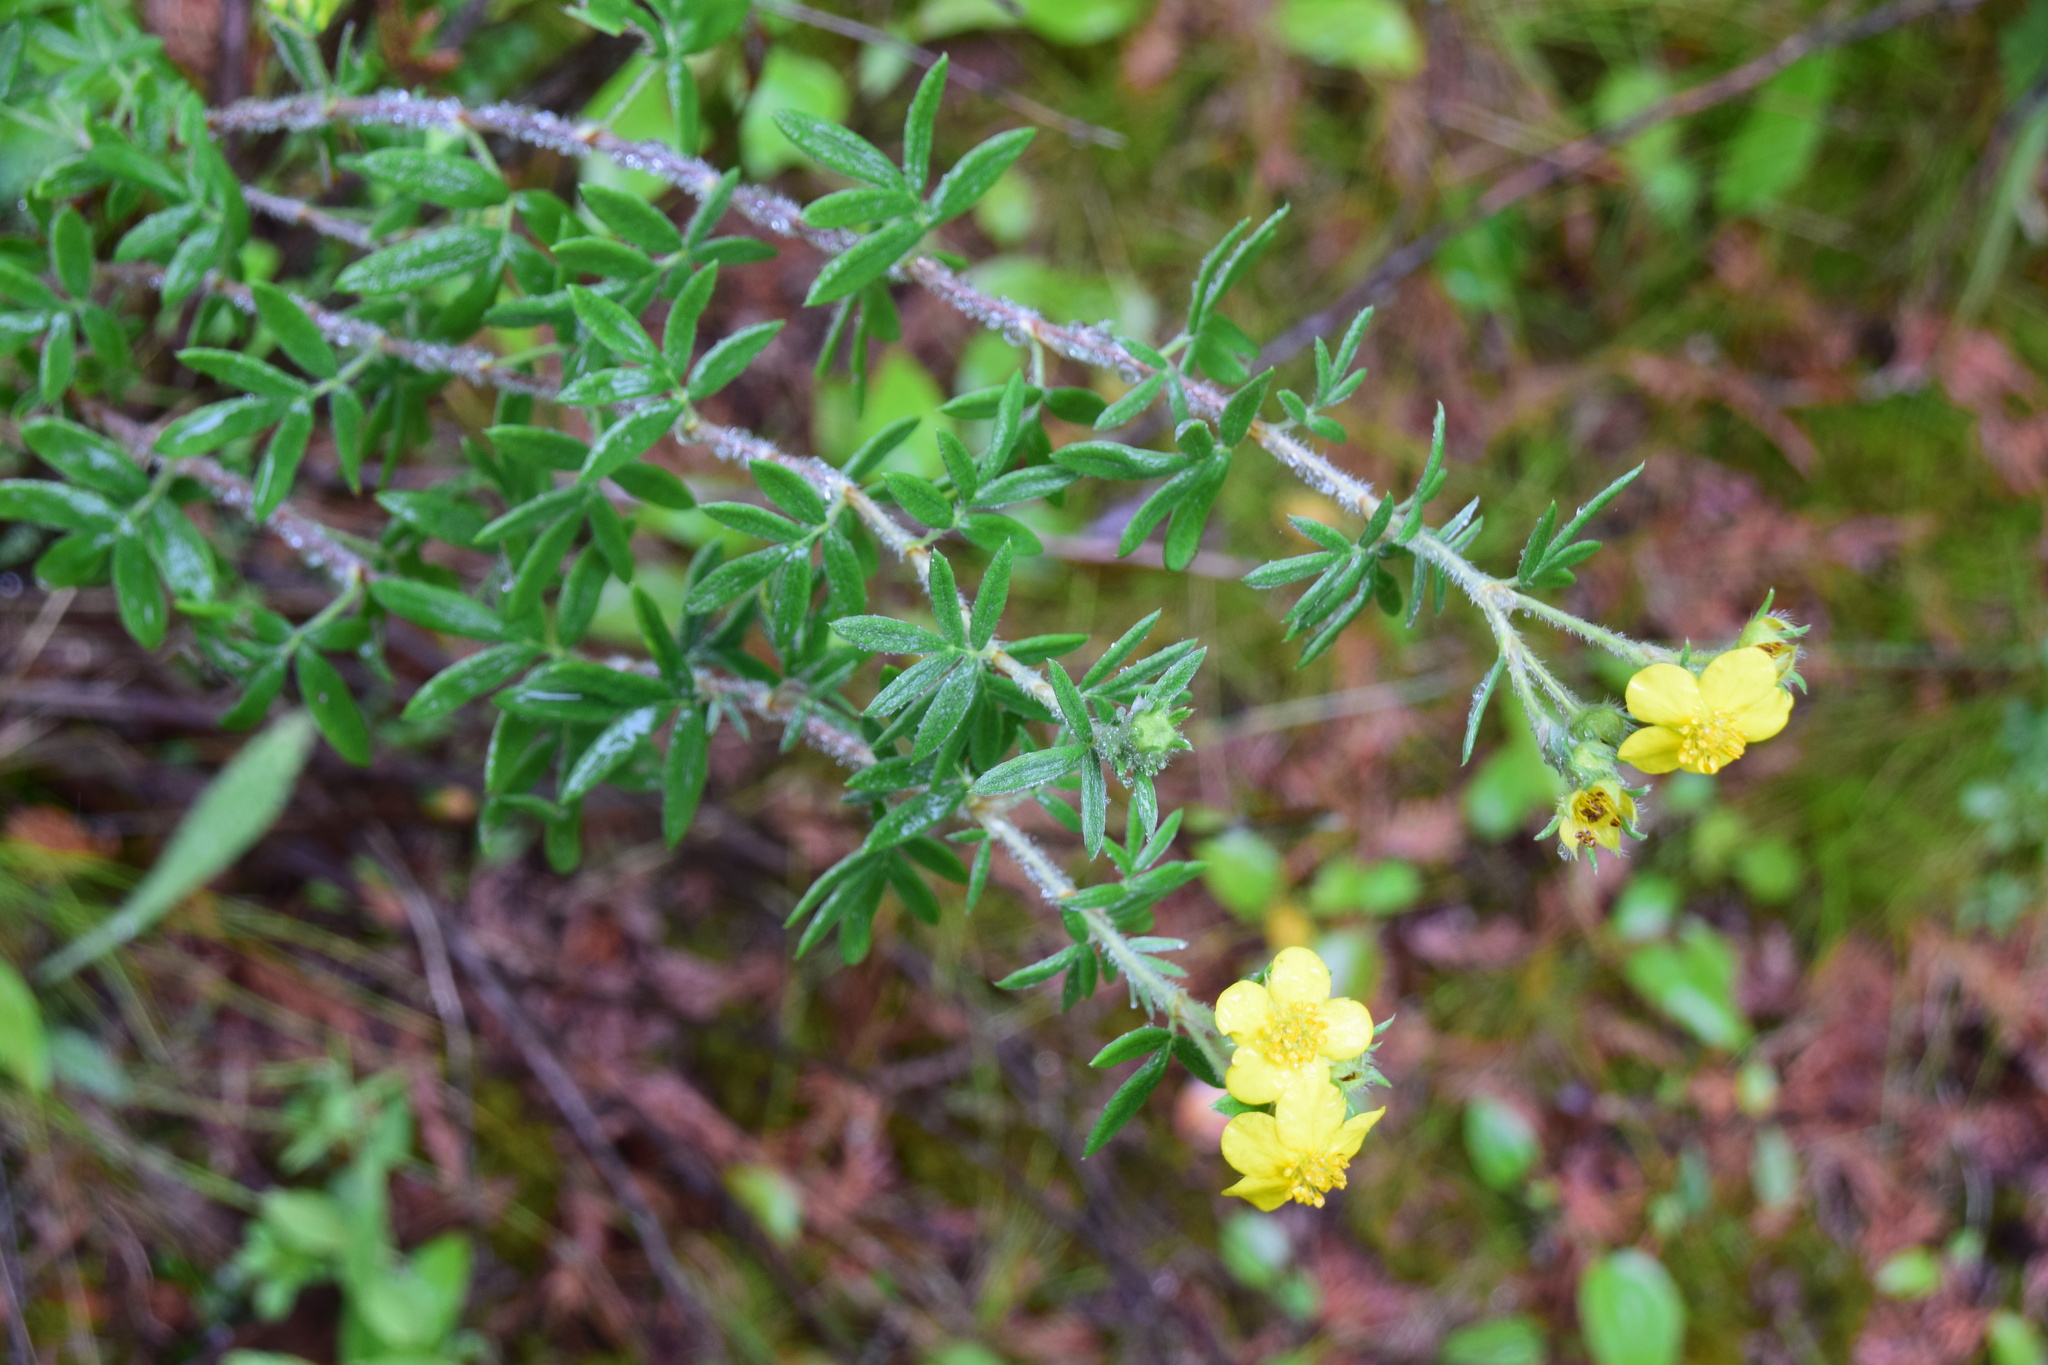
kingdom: Plantae
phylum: Tracheophyta
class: Magnoliopsida
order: Rosales
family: Rosaceae
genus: Potentilla
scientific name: Potentilla argentea
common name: Hoary cinquefoil
